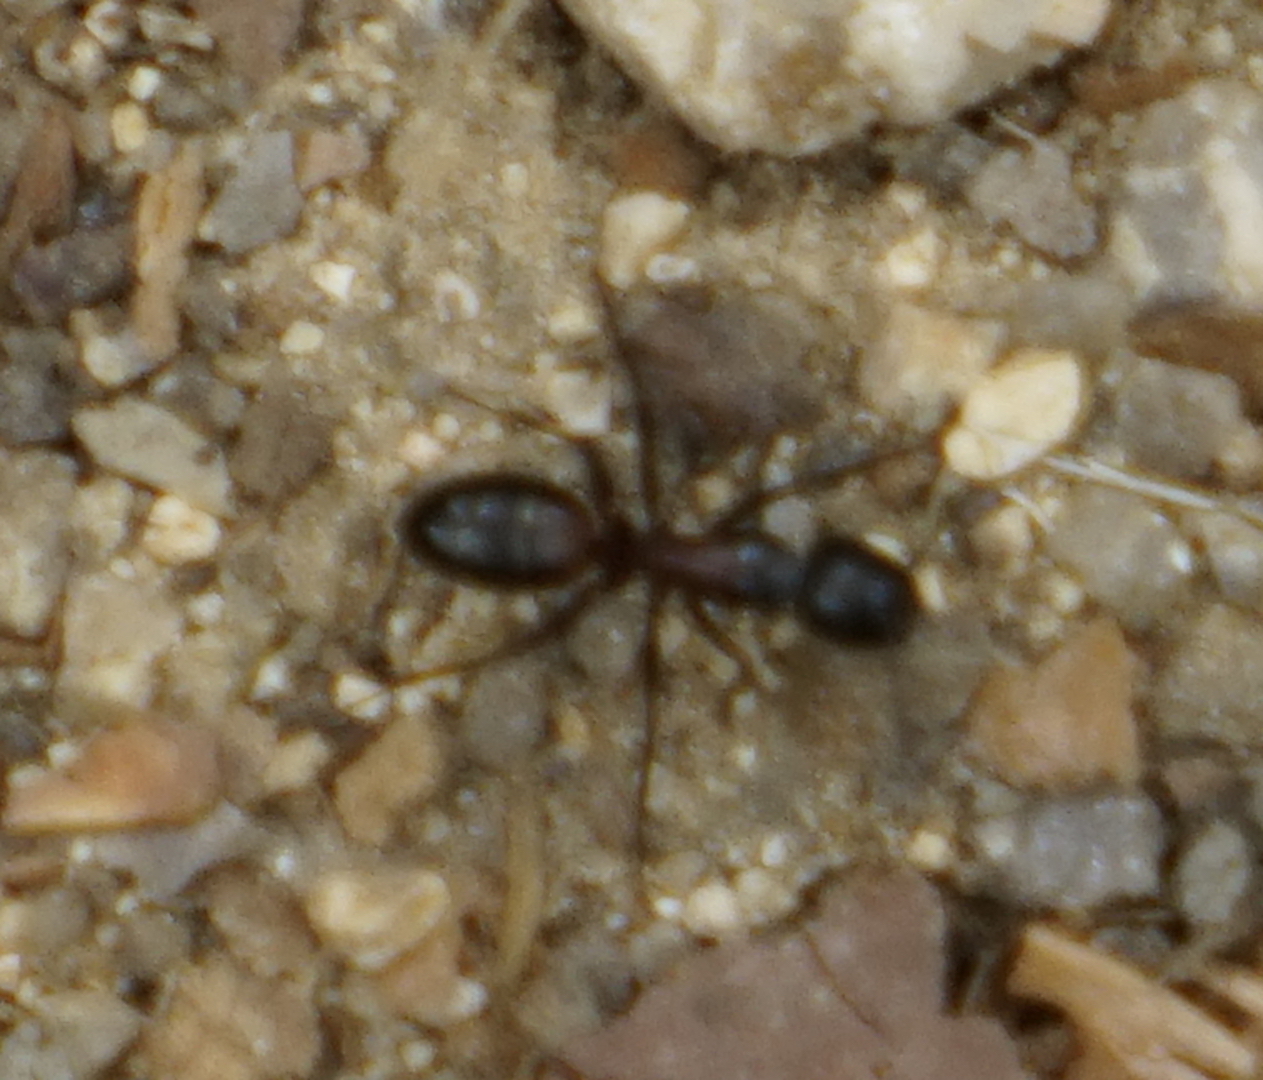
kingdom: Animalia
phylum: Arthropoda
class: Insecta
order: Hymenoptera
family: Formicidae
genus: Camponotus
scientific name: Camponotus hemichlaena
